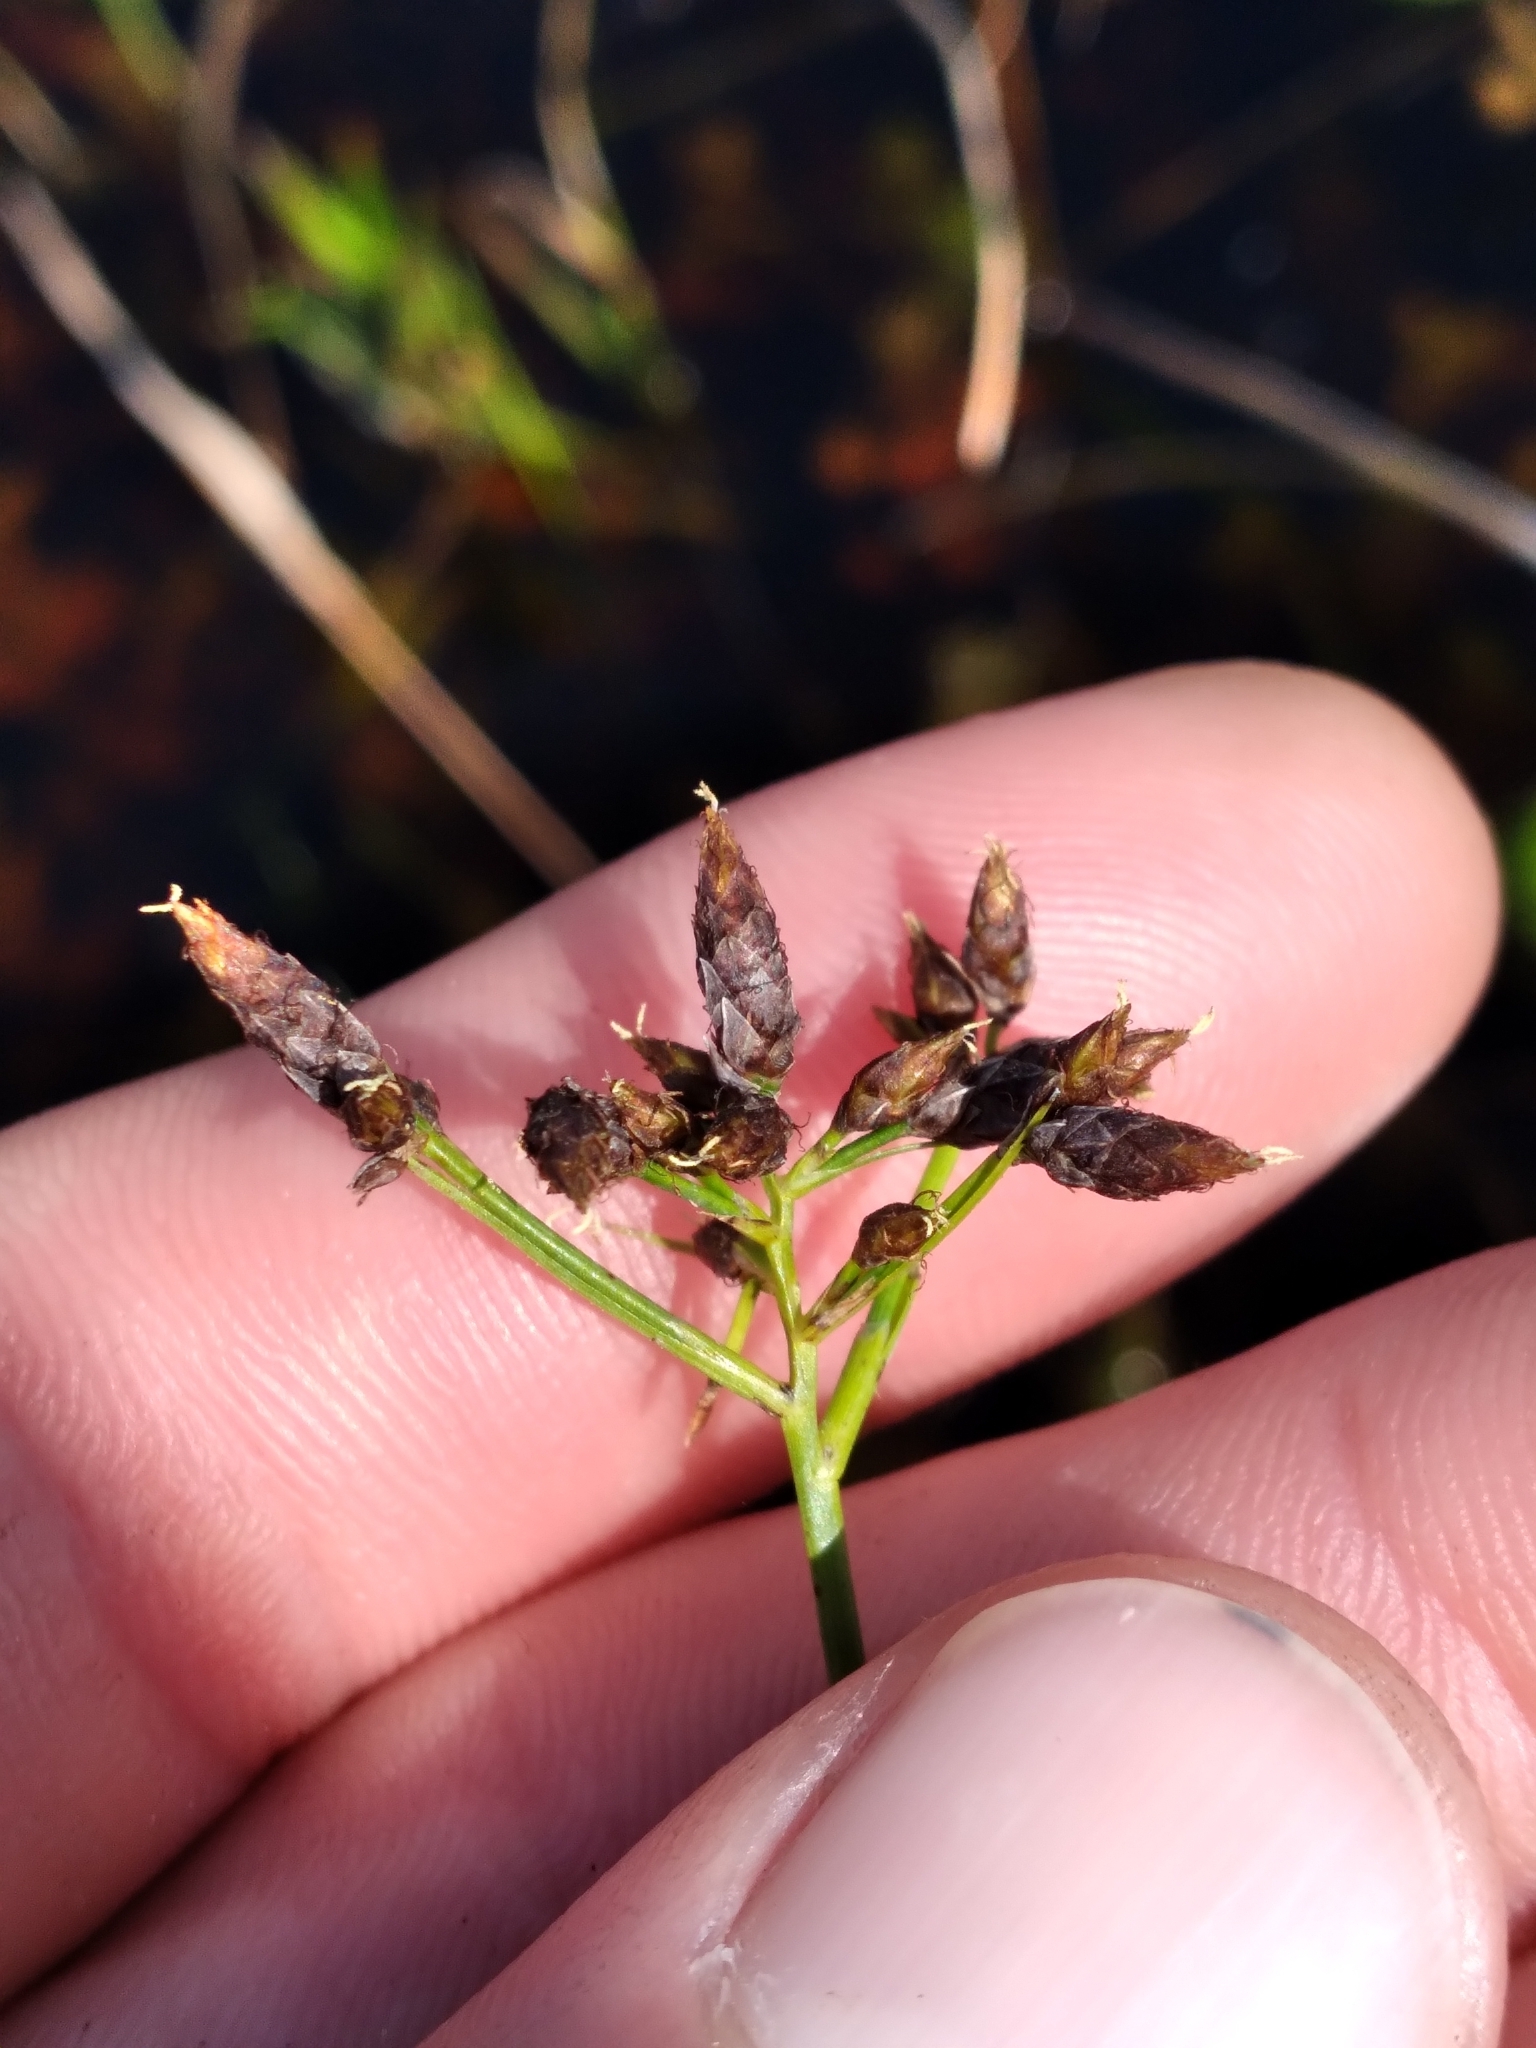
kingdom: Plantae
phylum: Tracheophyta
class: Liliopsida
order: Poales
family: Cyperaceae
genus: Rhynchospora
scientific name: Rhynchospora nitens
